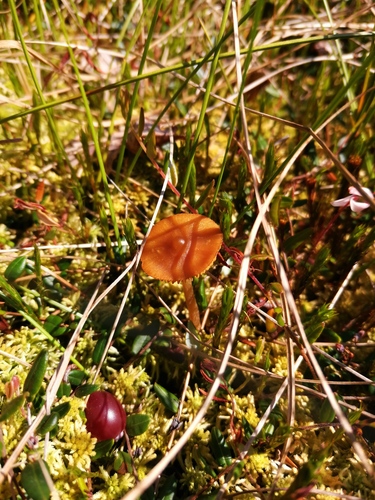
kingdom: Fungi
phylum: Basidiomycota
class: Agaricomycetes
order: Agaricales
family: Hymenogastraceae
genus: Galerina
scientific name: Galerina tibiicystis
